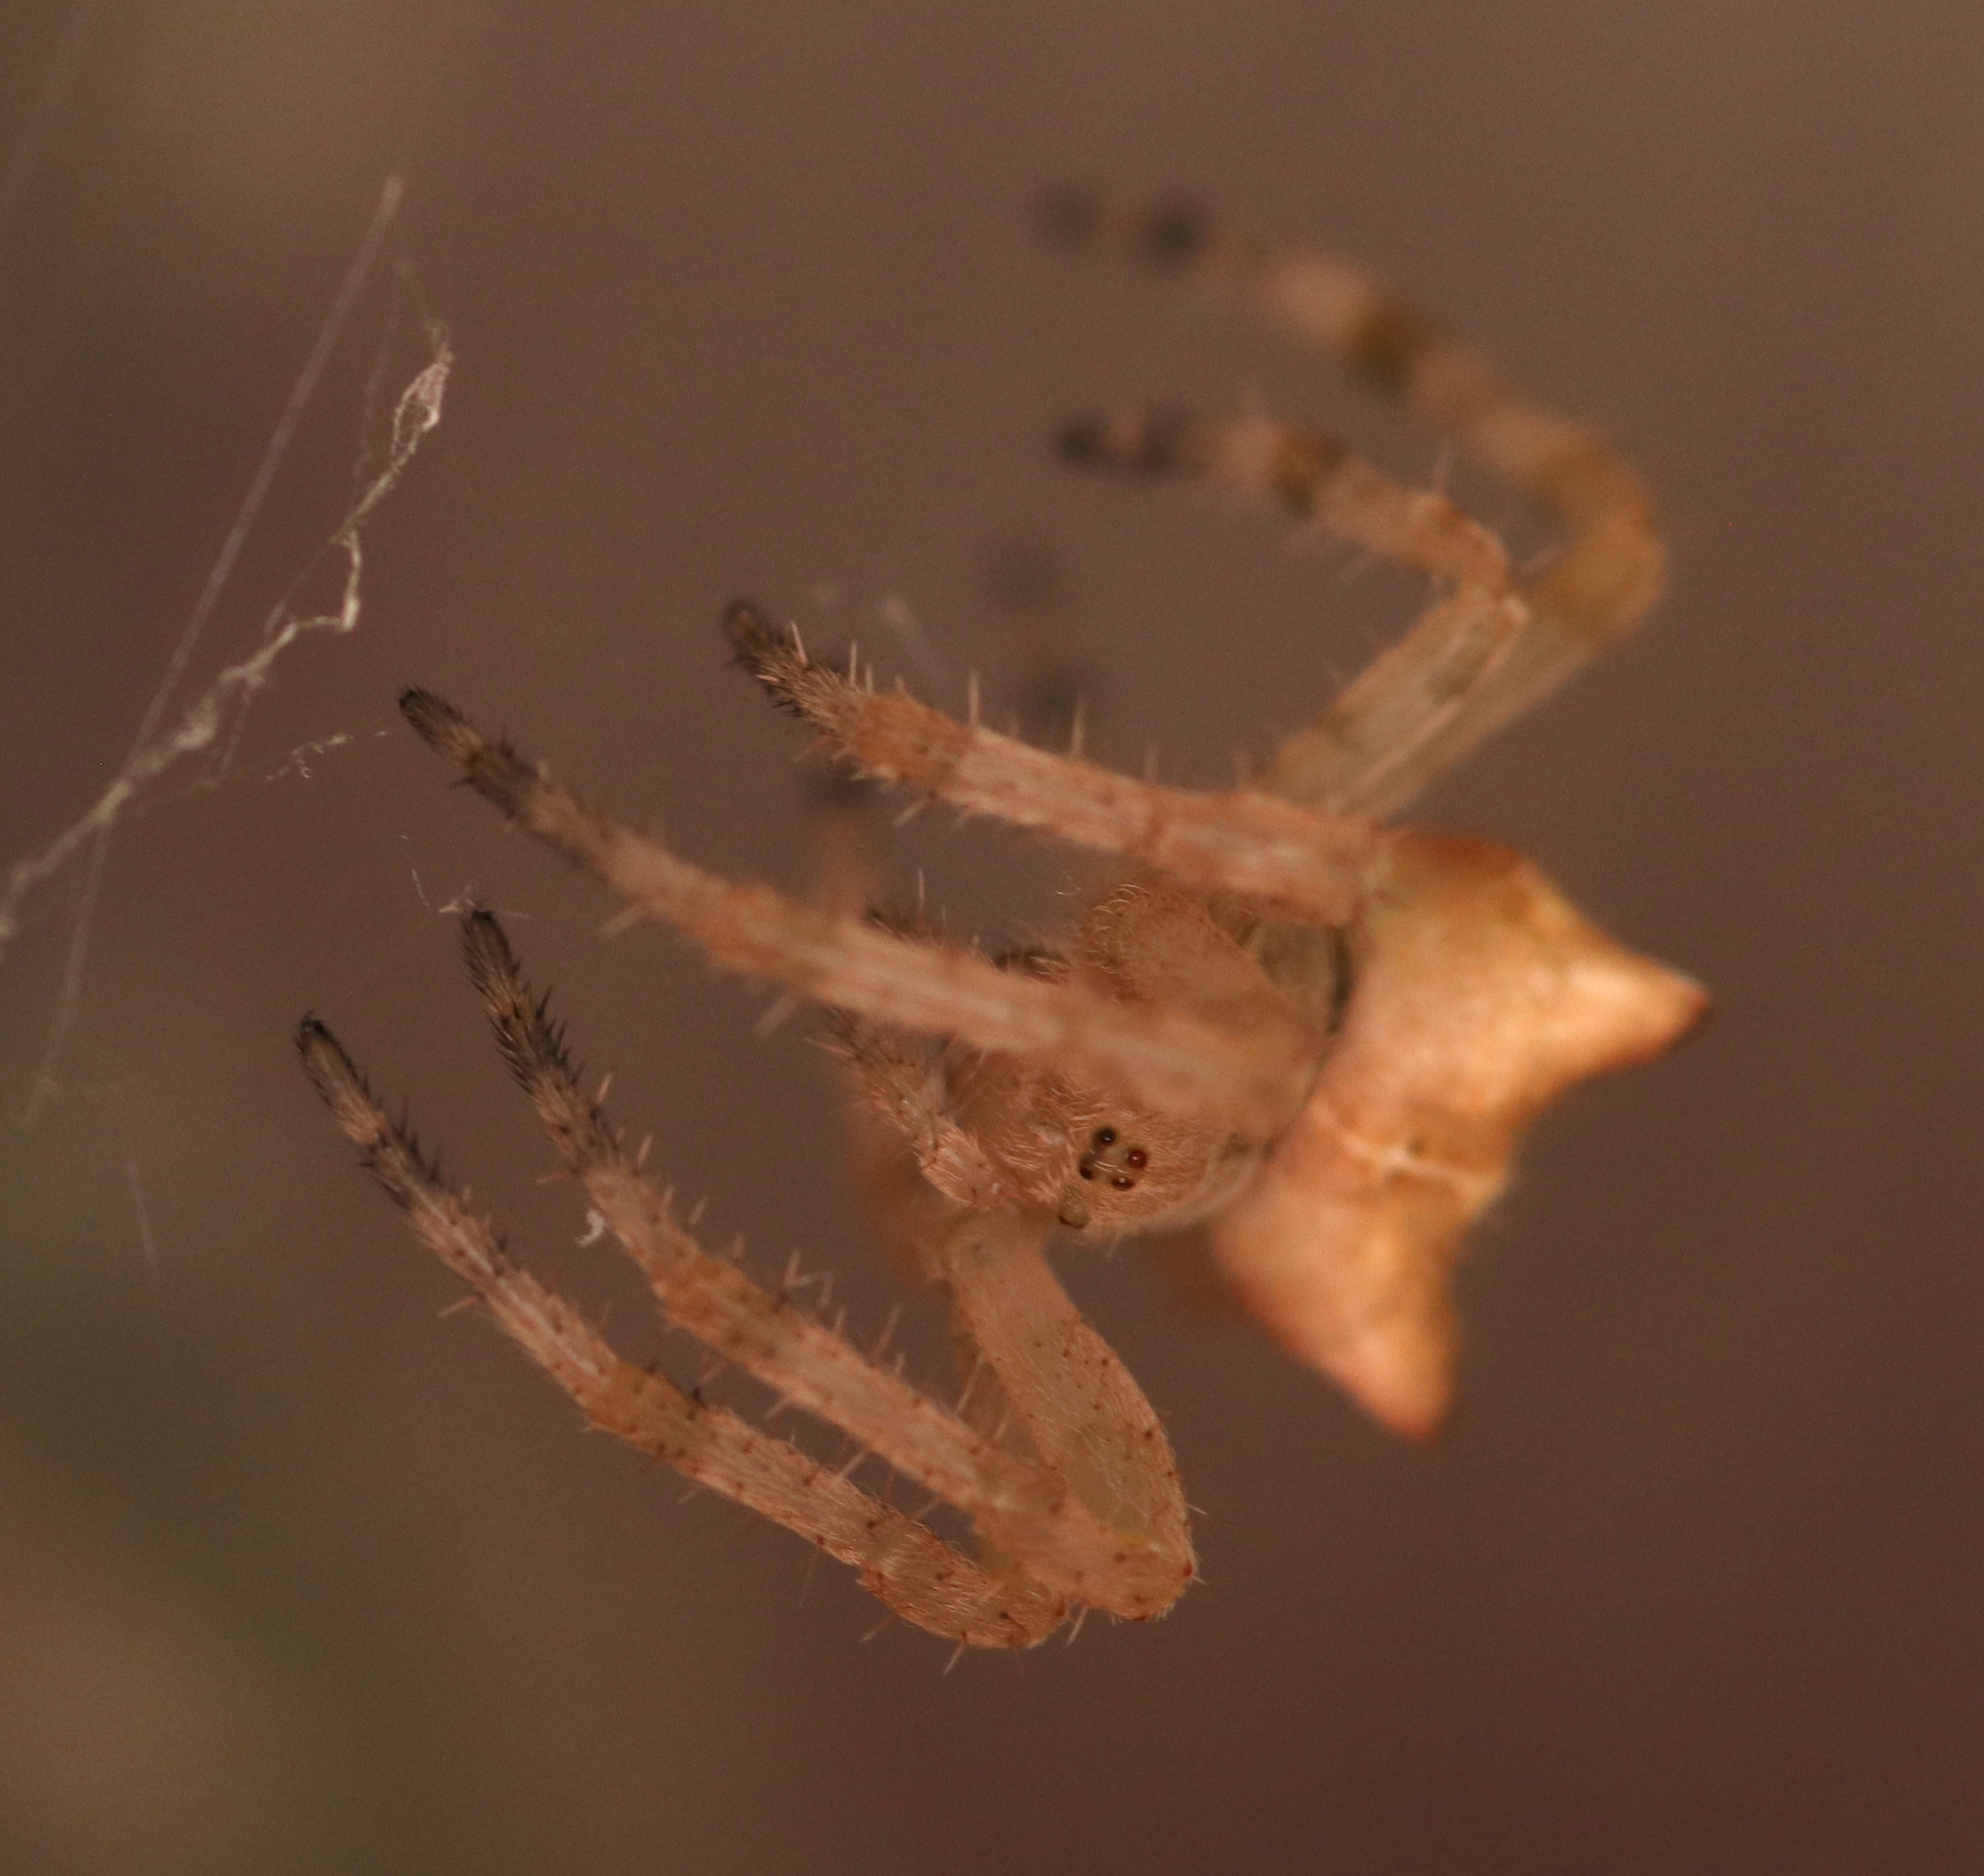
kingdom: Animalia
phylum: Arthropoda
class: Arachnida
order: Araneae
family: Araneidae
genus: Araneus
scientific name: Araneus gemmoides
